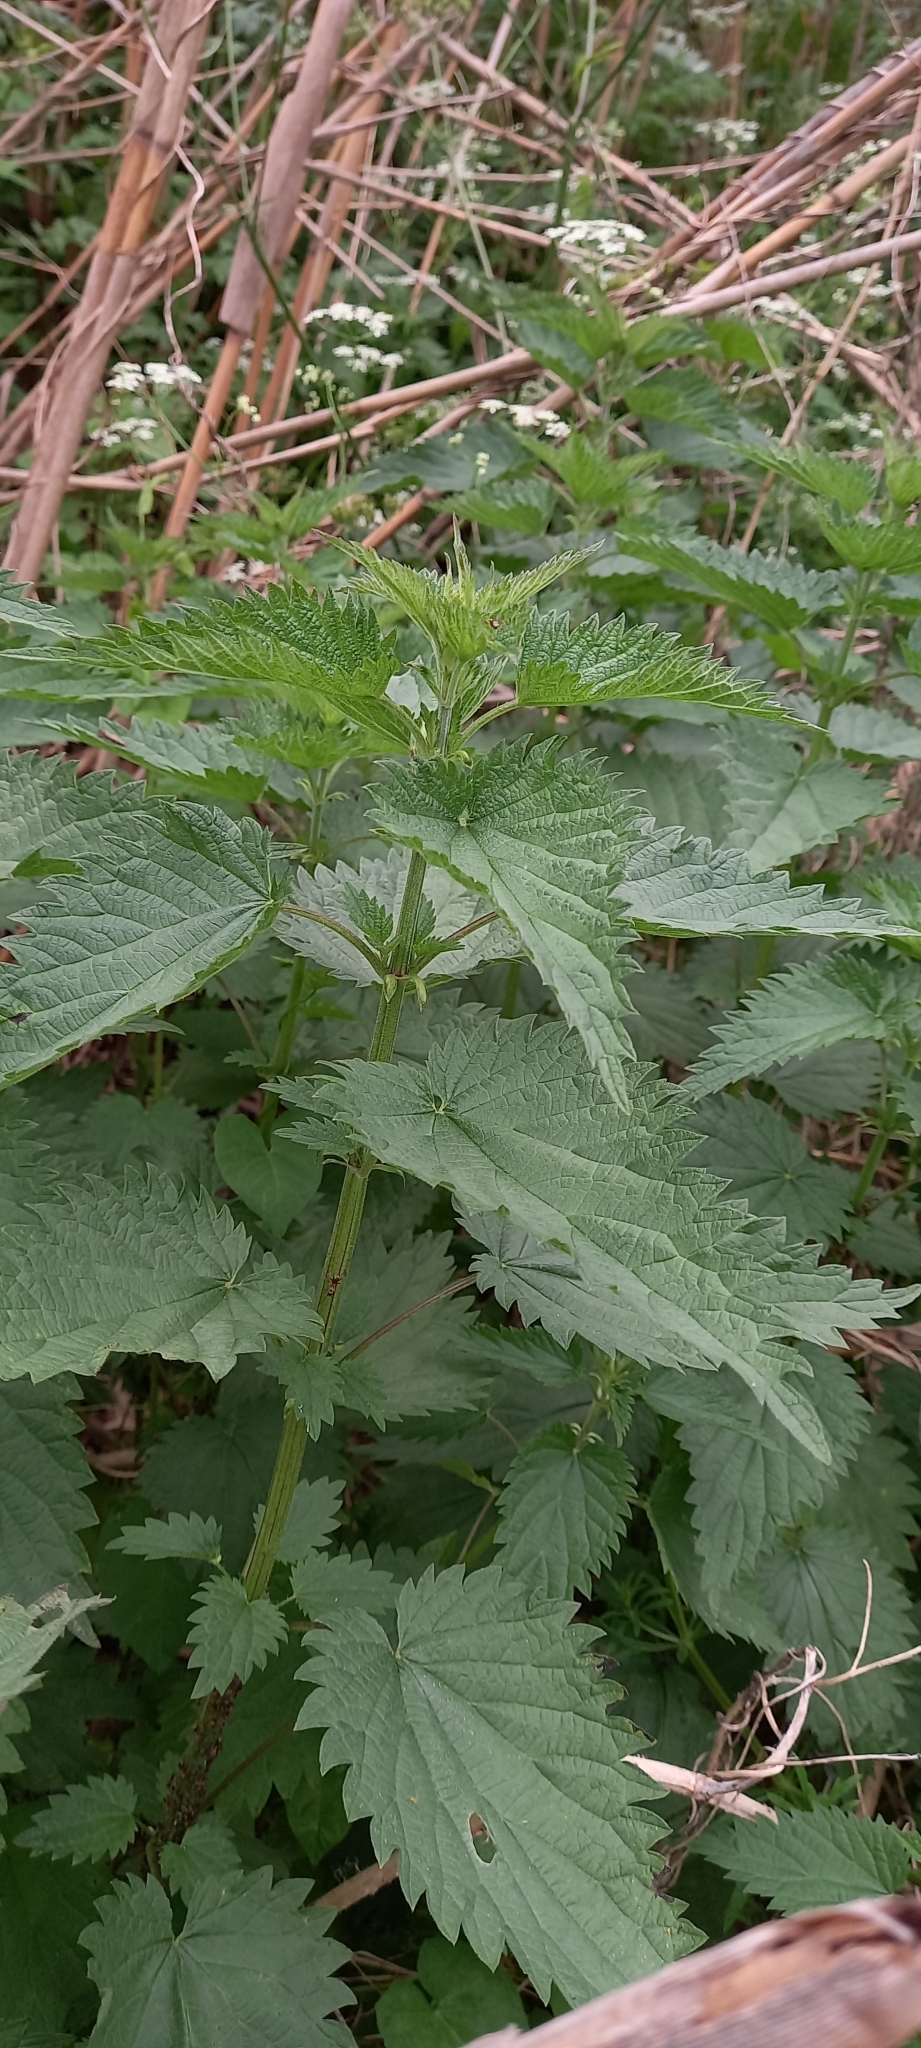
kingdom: Plantae
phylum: Tracheophyta
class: Magnoliopsida
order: Rosales
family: Urticaceae
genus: Urtica
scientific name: Urtica dioica
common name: Common nettle
